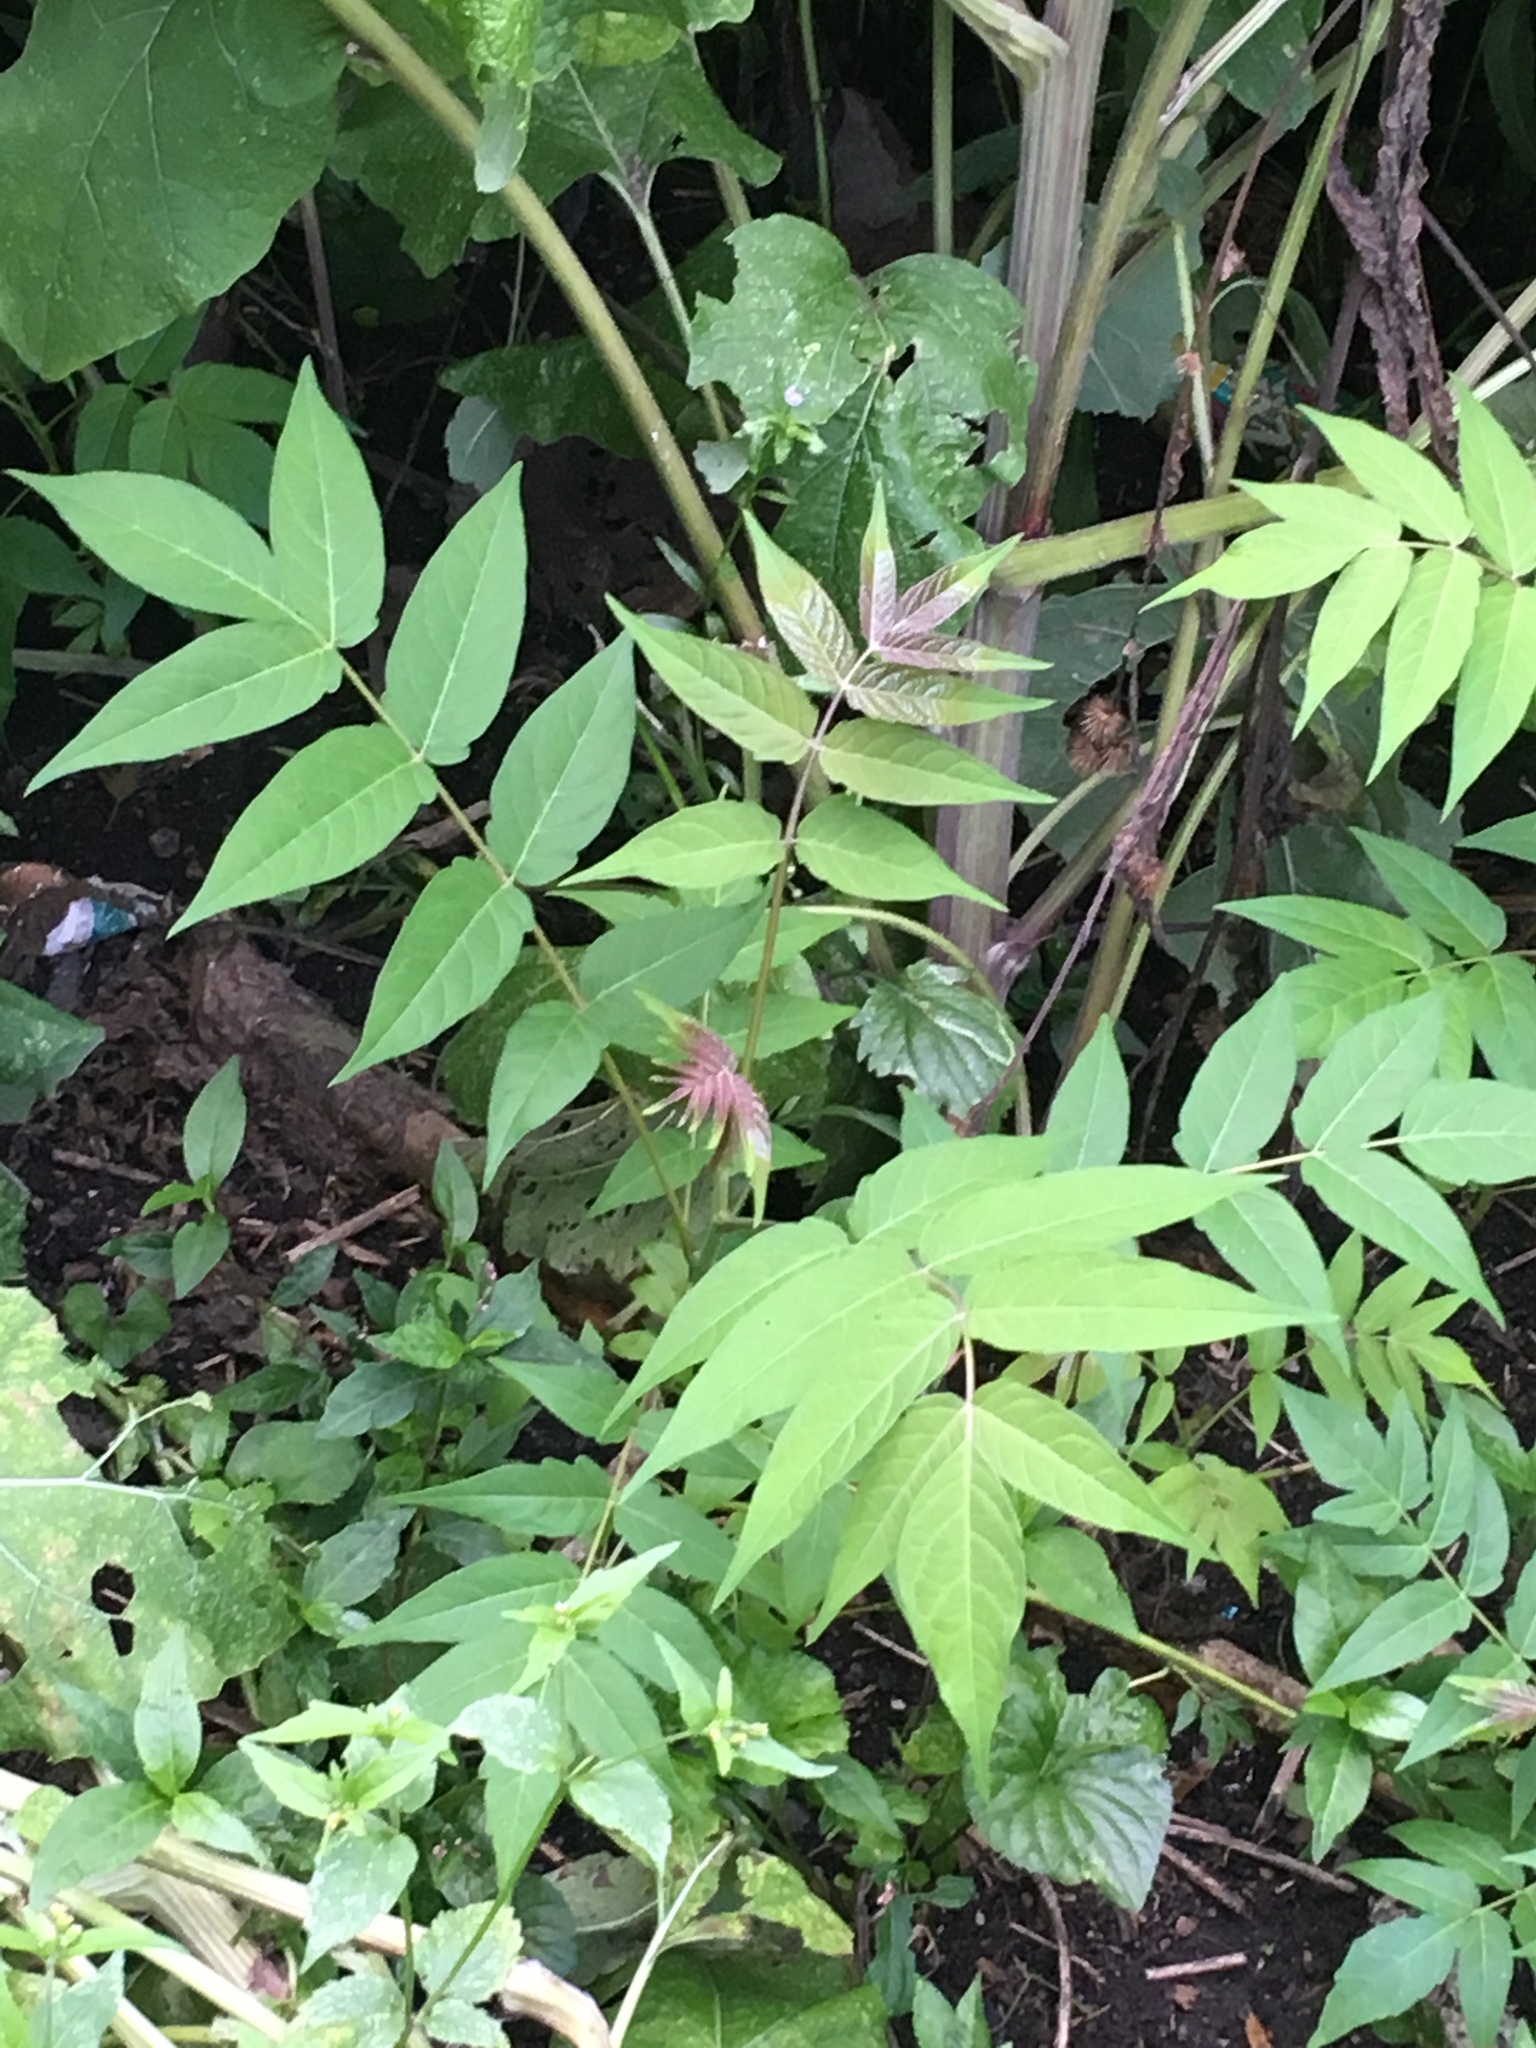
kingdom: Plantae
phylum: Tracheophyta
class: Magnoliopsida
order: Sapindales
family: Simaroubaceae
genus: Ailanthus
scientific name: Ailanthus altissima
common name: Tree-of-heaven
